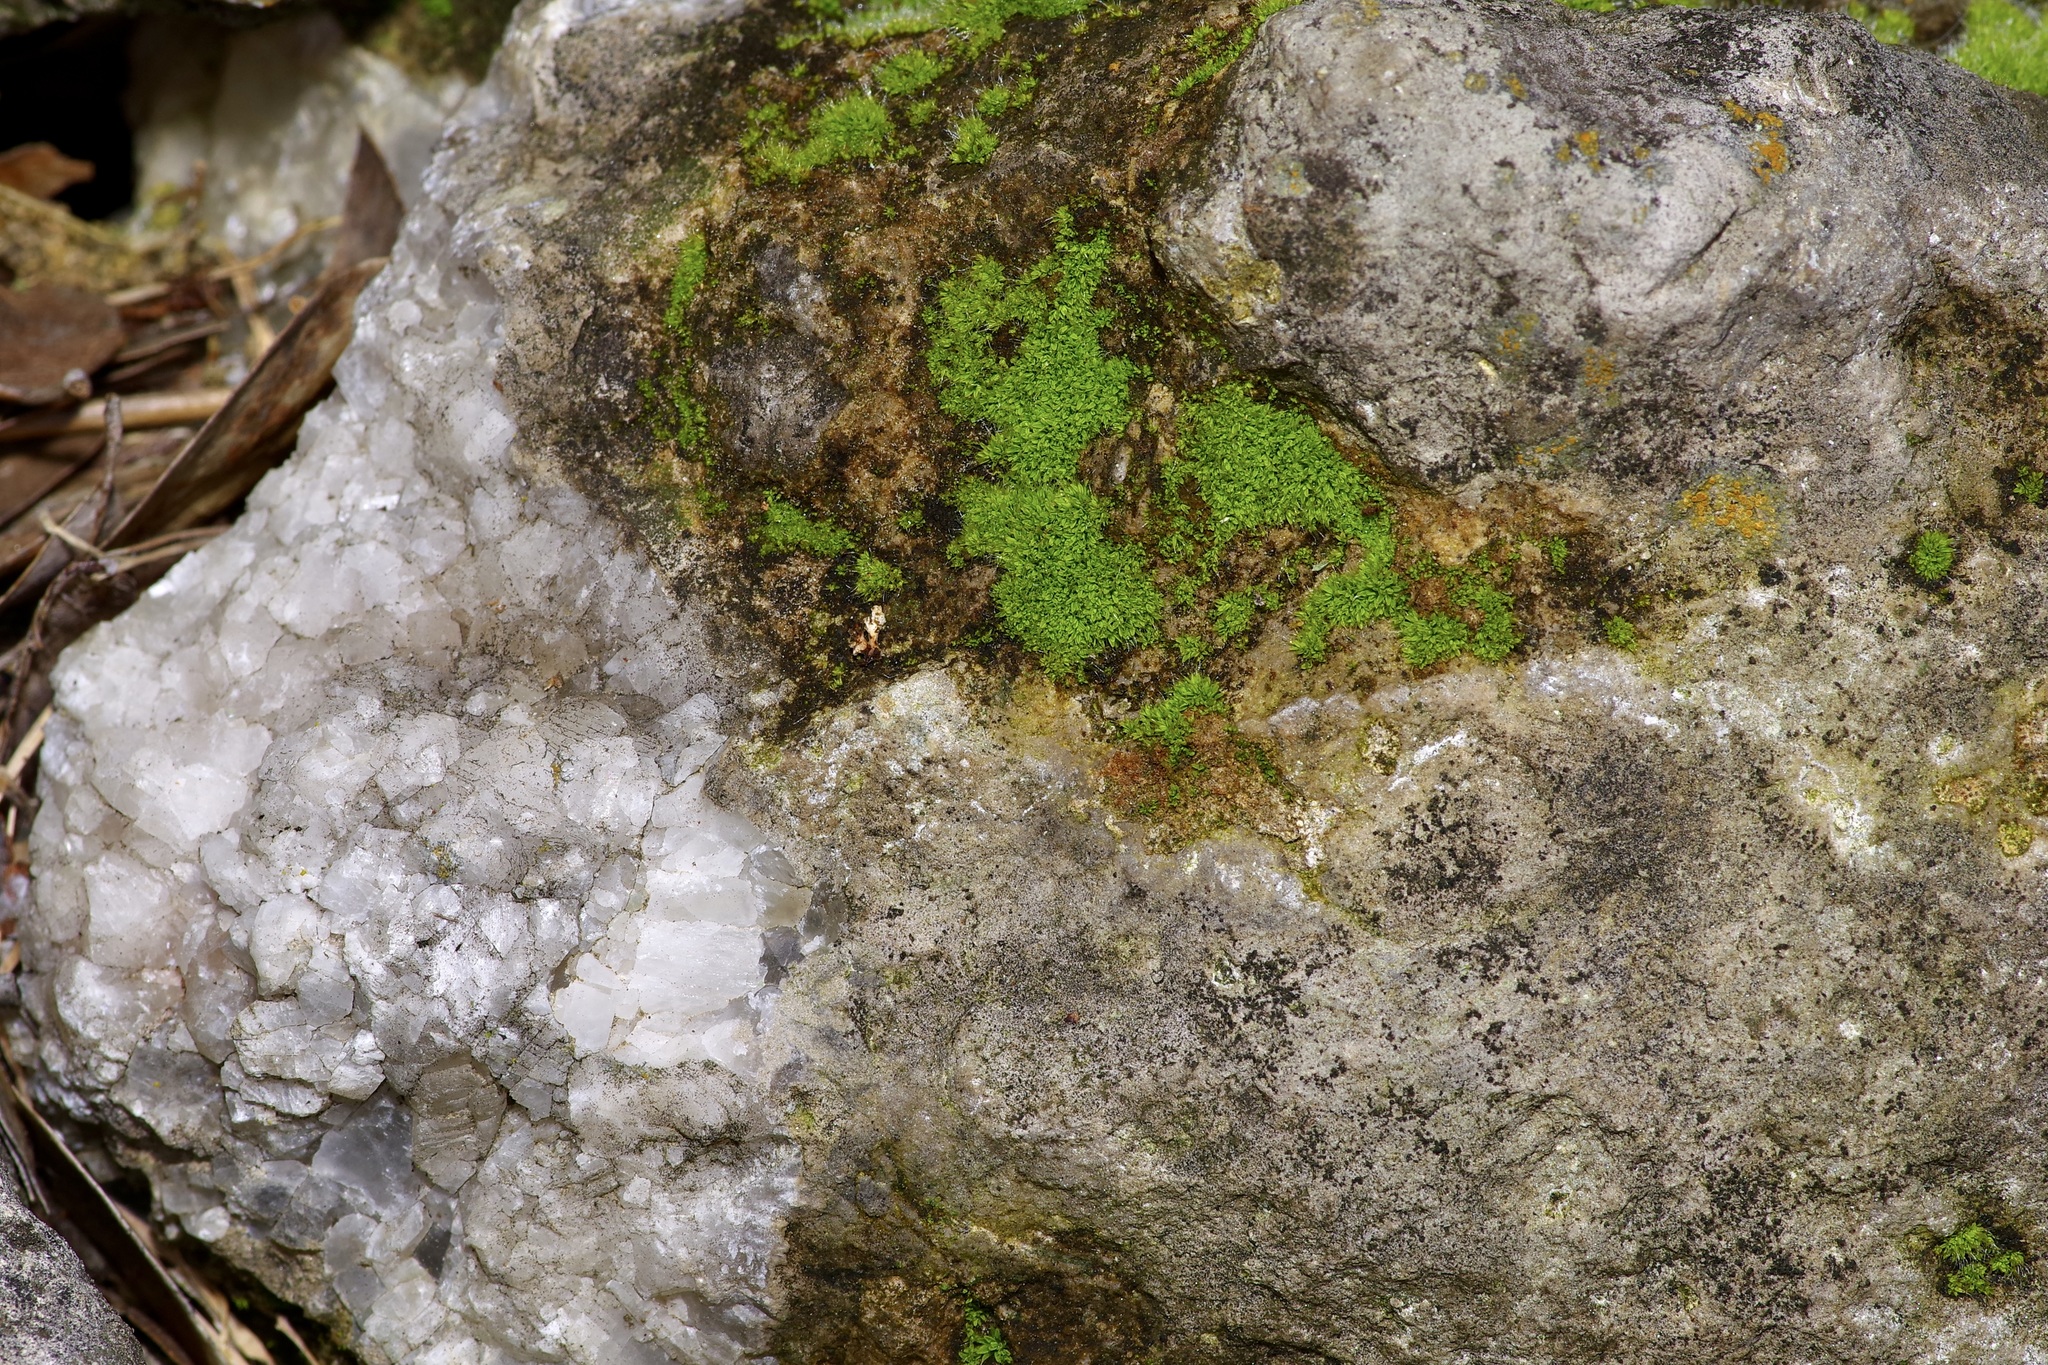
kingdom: Plantae
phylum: Bryophyta
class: Bryopsida
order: Pottiales
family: Pottiaceae
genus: Tortula
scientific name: Tortula muralis
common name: Wall screw-moss
